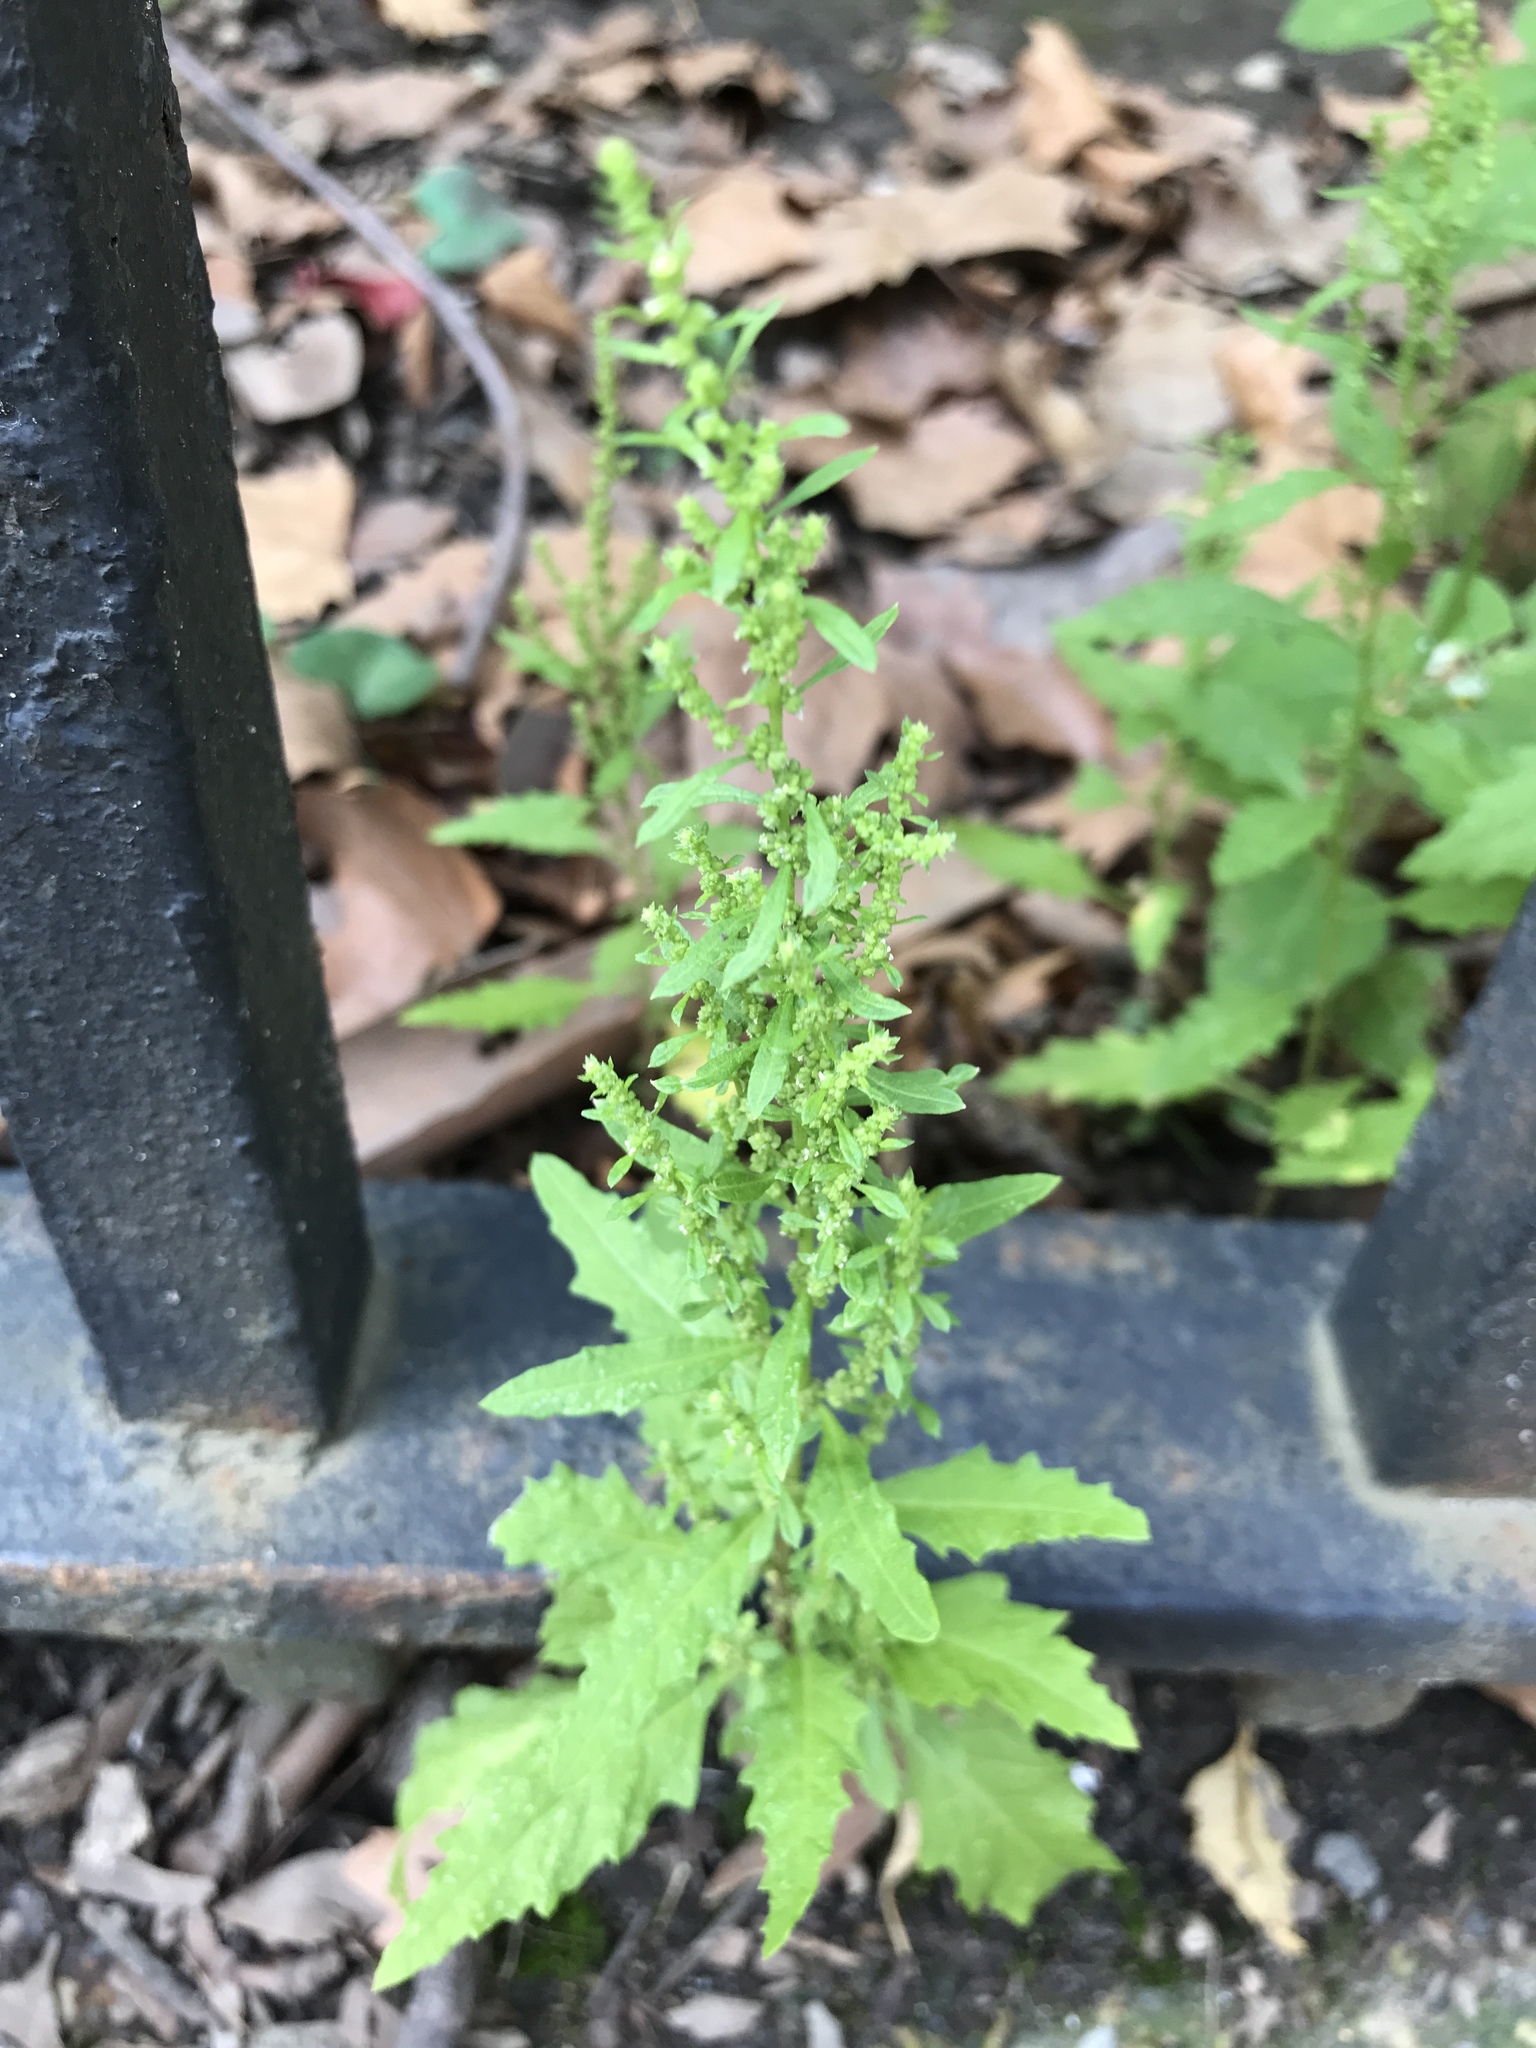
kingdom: Plantae
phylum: Tracheophyta
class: Magnoliopsida
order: Caryophyllales
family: Amaranthaceae
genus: Dysphania
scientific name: Dysphania ambrosioides
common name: Wormseed
